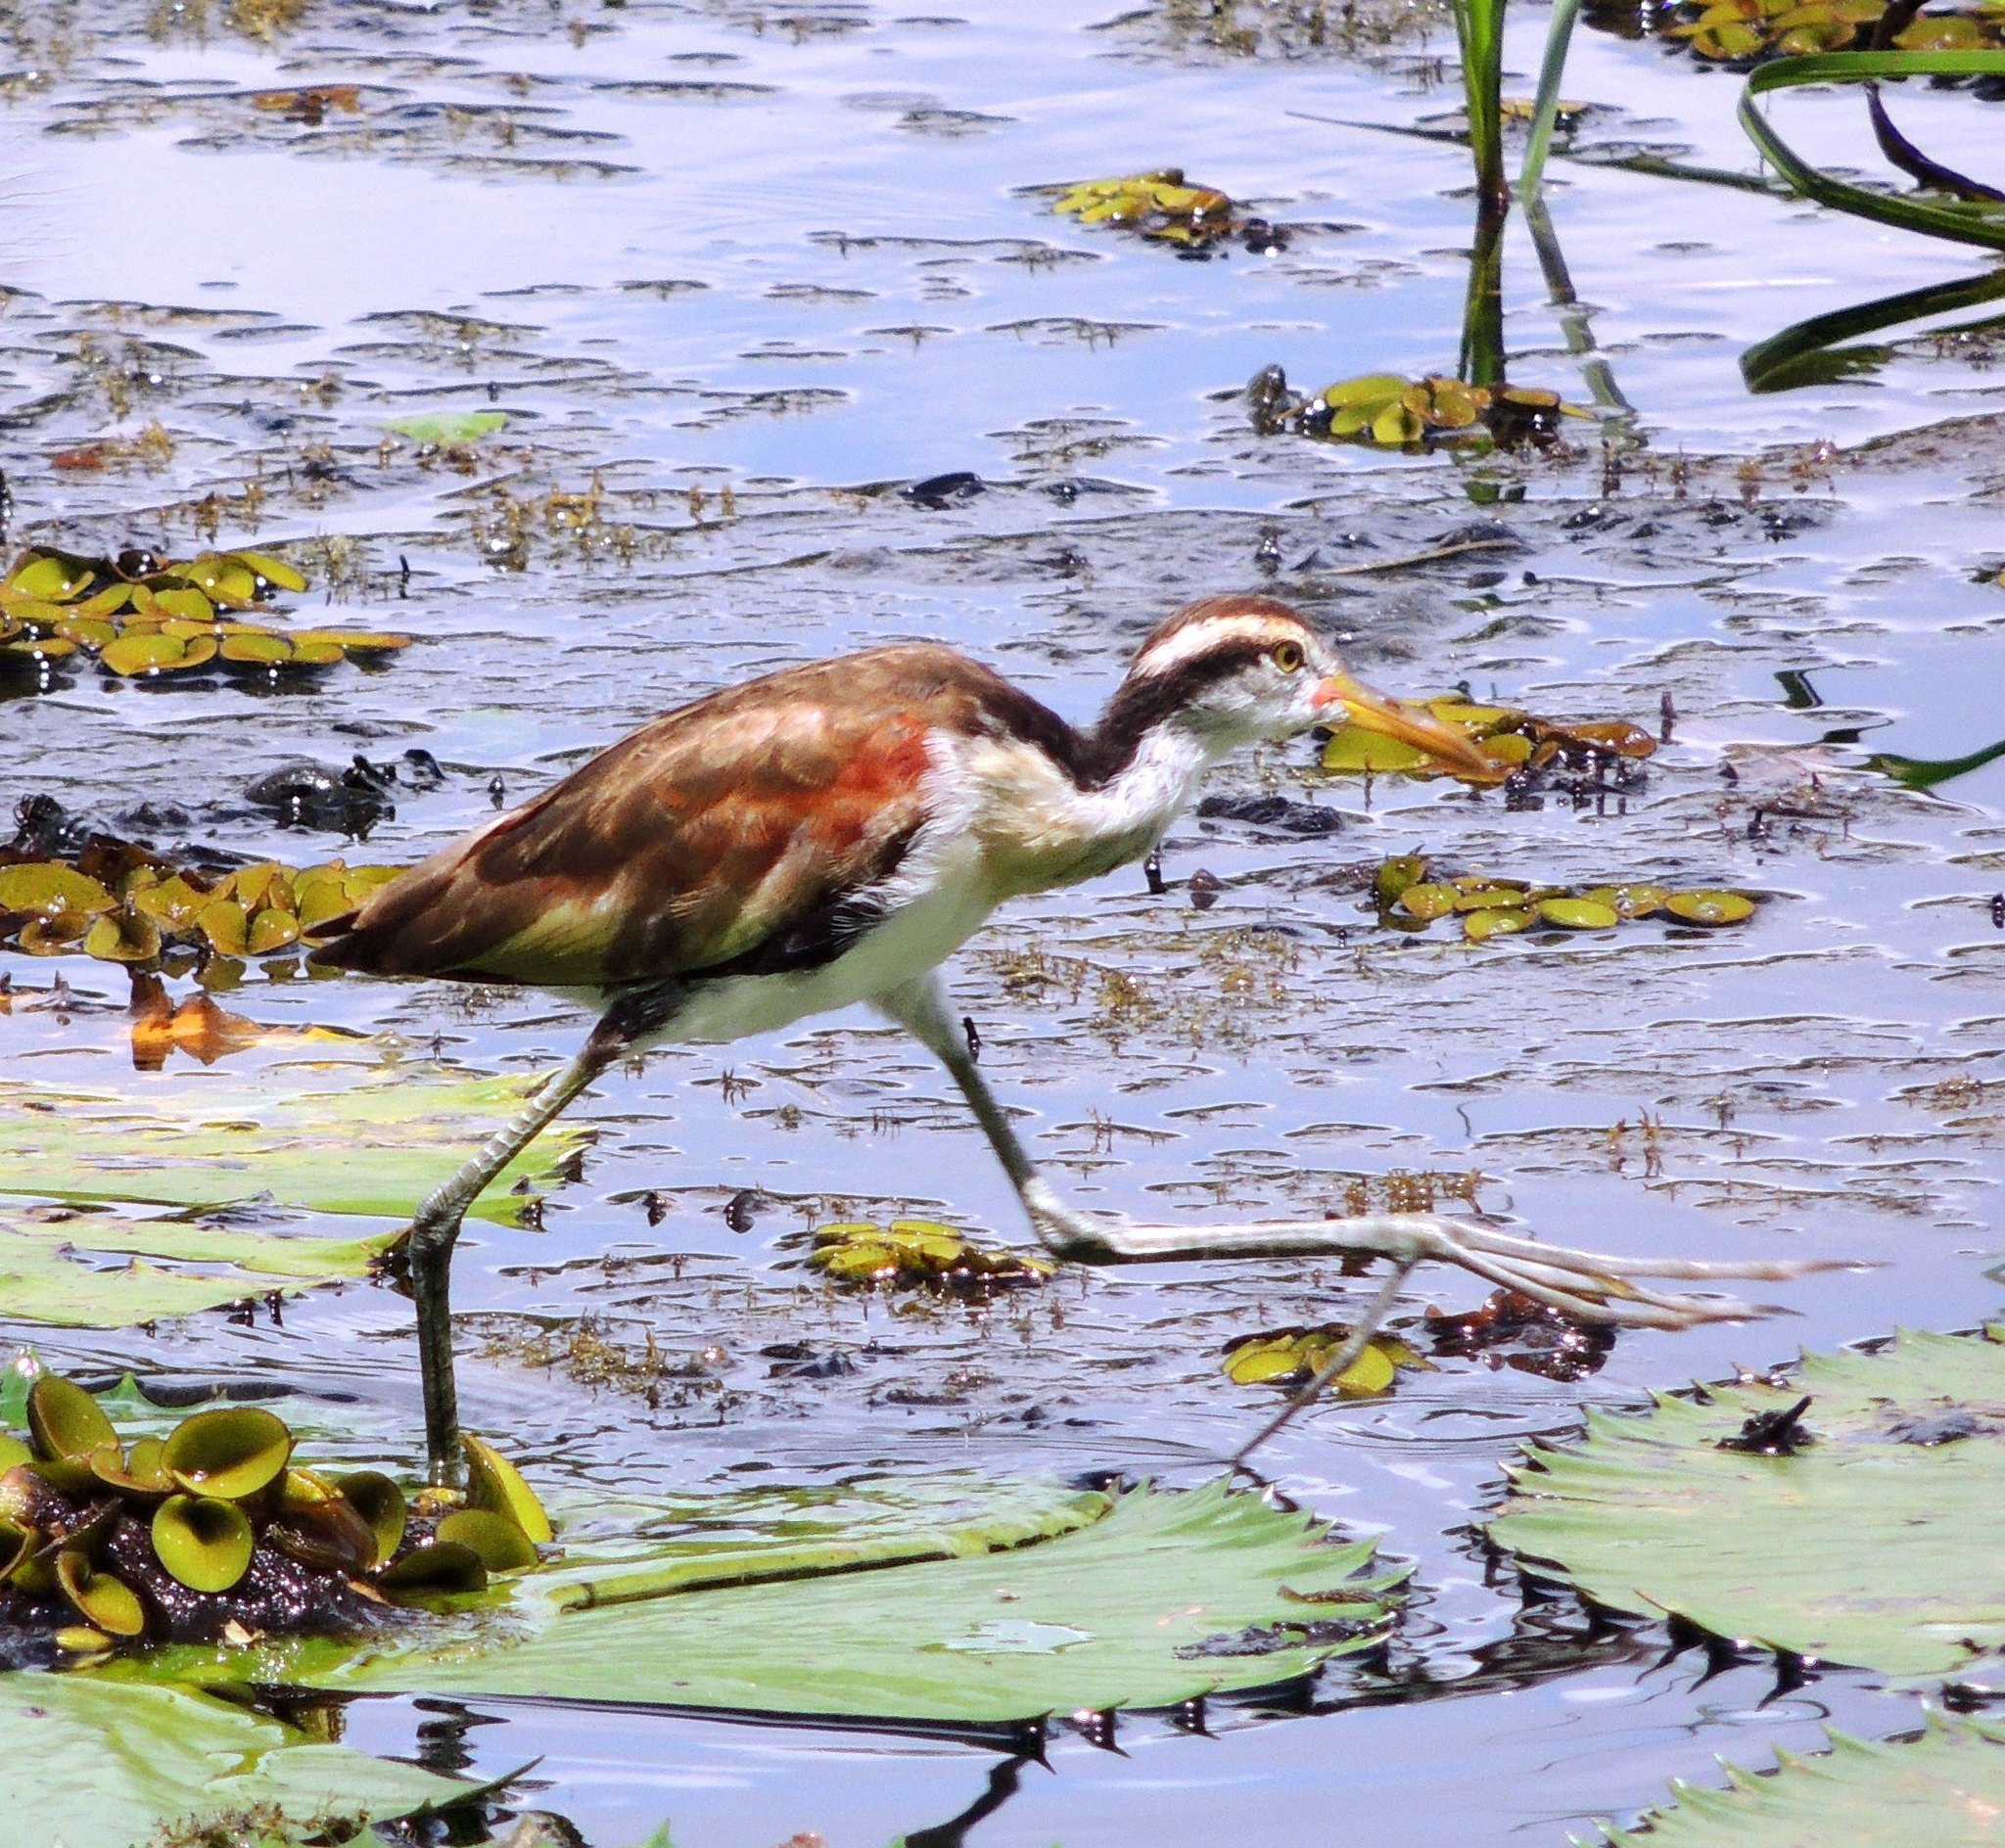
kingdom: Animalia
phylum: Chordata
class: Aves
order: Charadriiformes
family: Jacanidae
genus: Jacana
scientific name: Jacana jacana
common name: Wattled jacana
